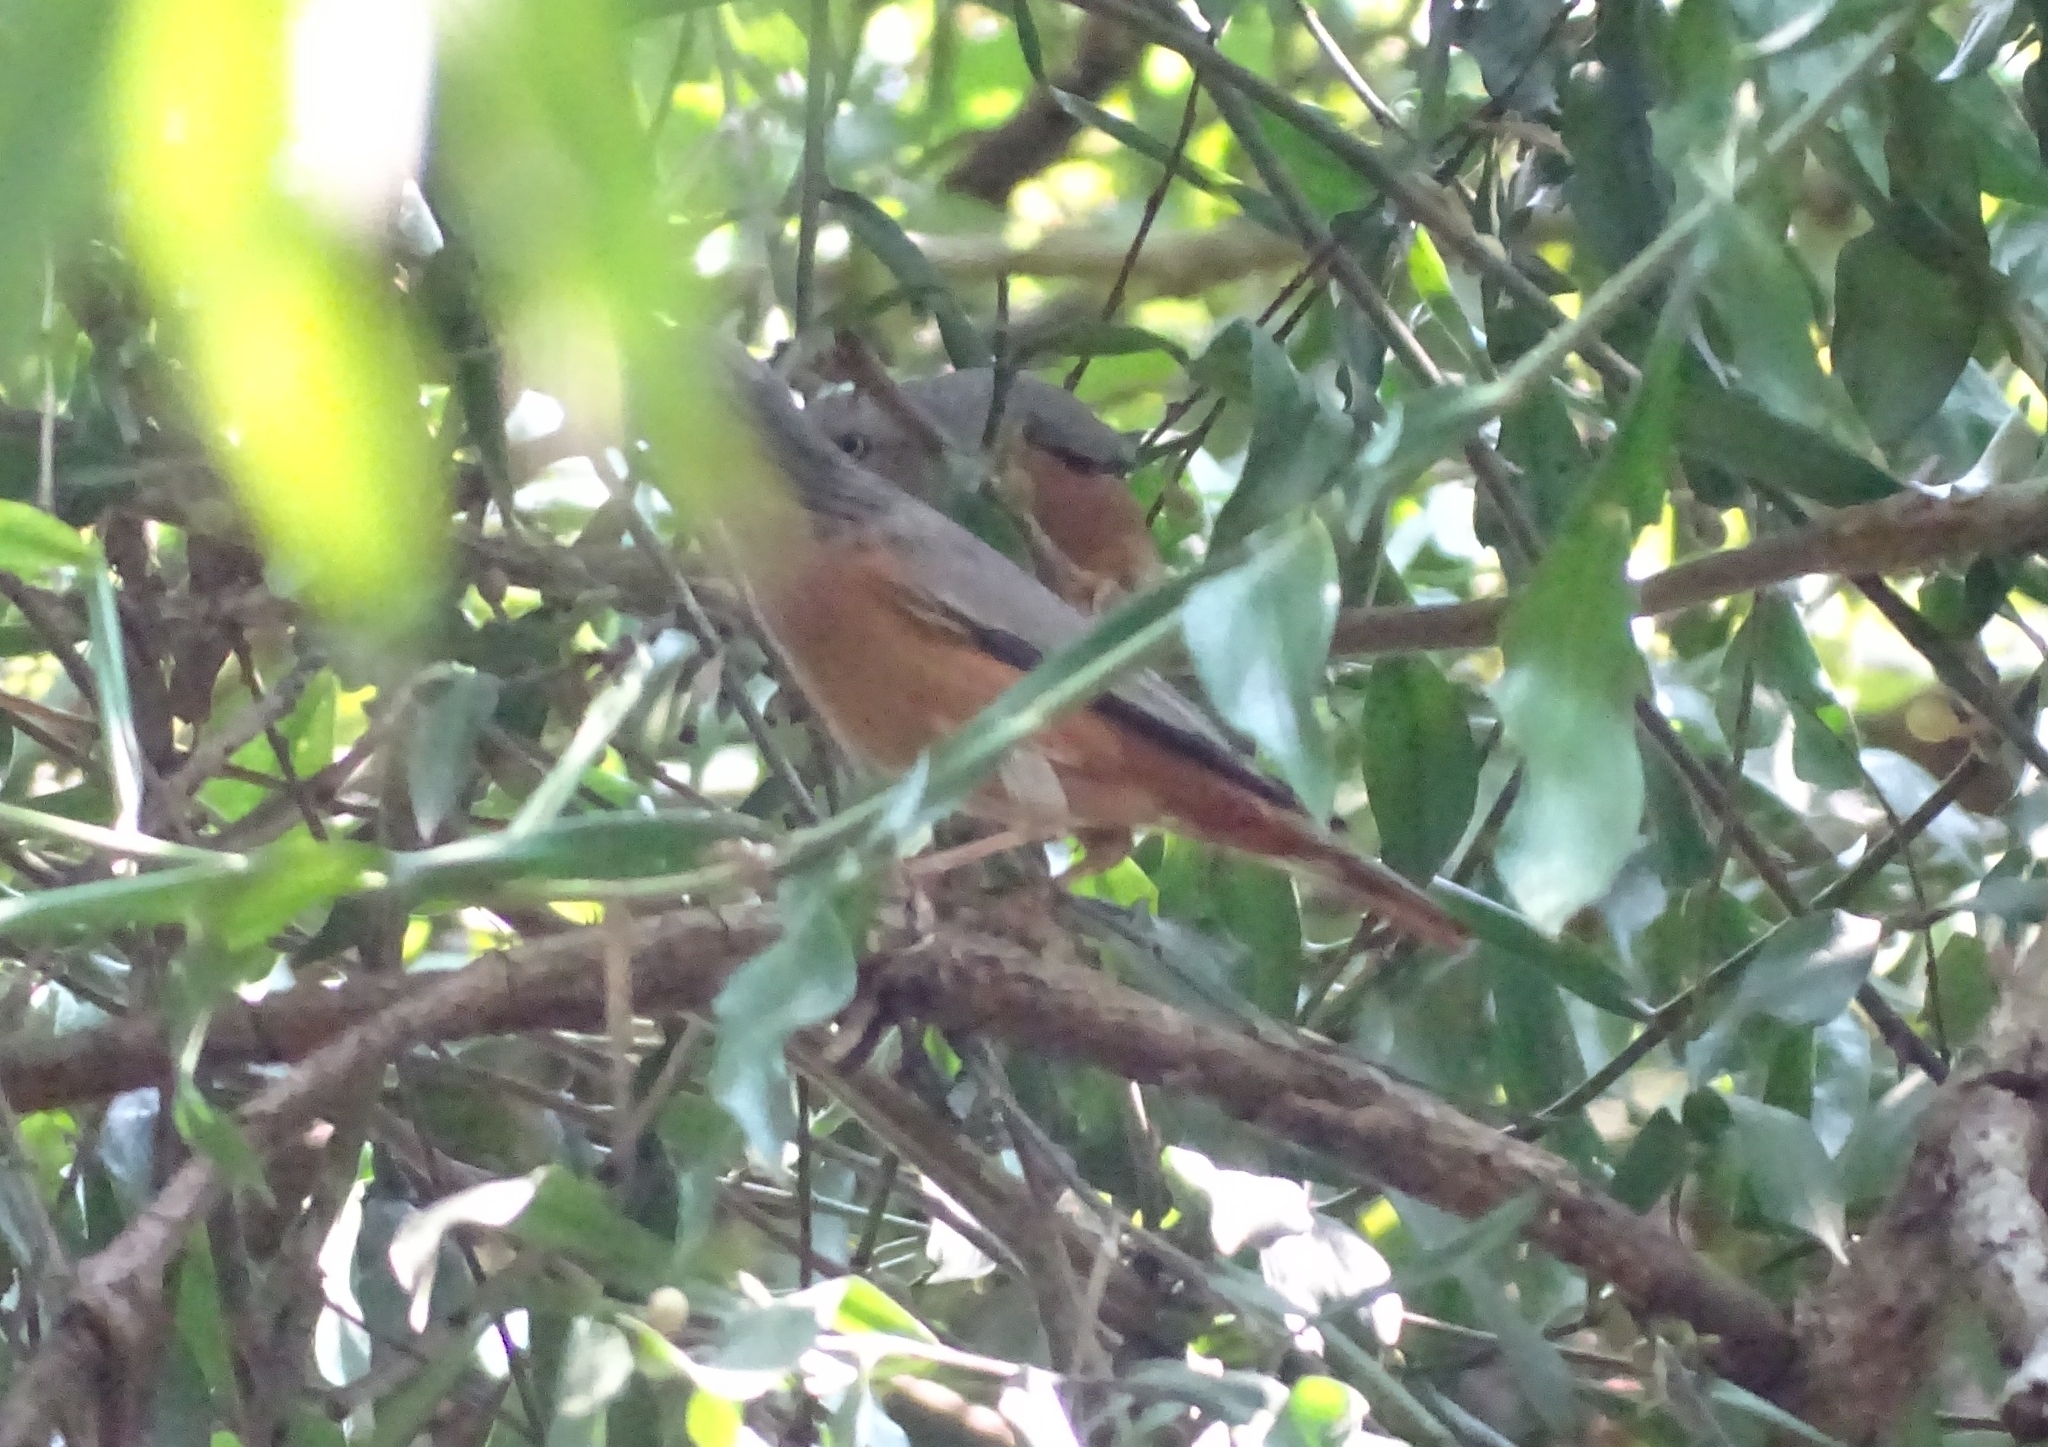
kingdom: Animalia
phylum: Chordata
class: Aves
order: Passeriformes
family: Sturnidae
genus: Sturnia
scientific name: Sturnia malabarica
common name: Chestnut-tailed starling
